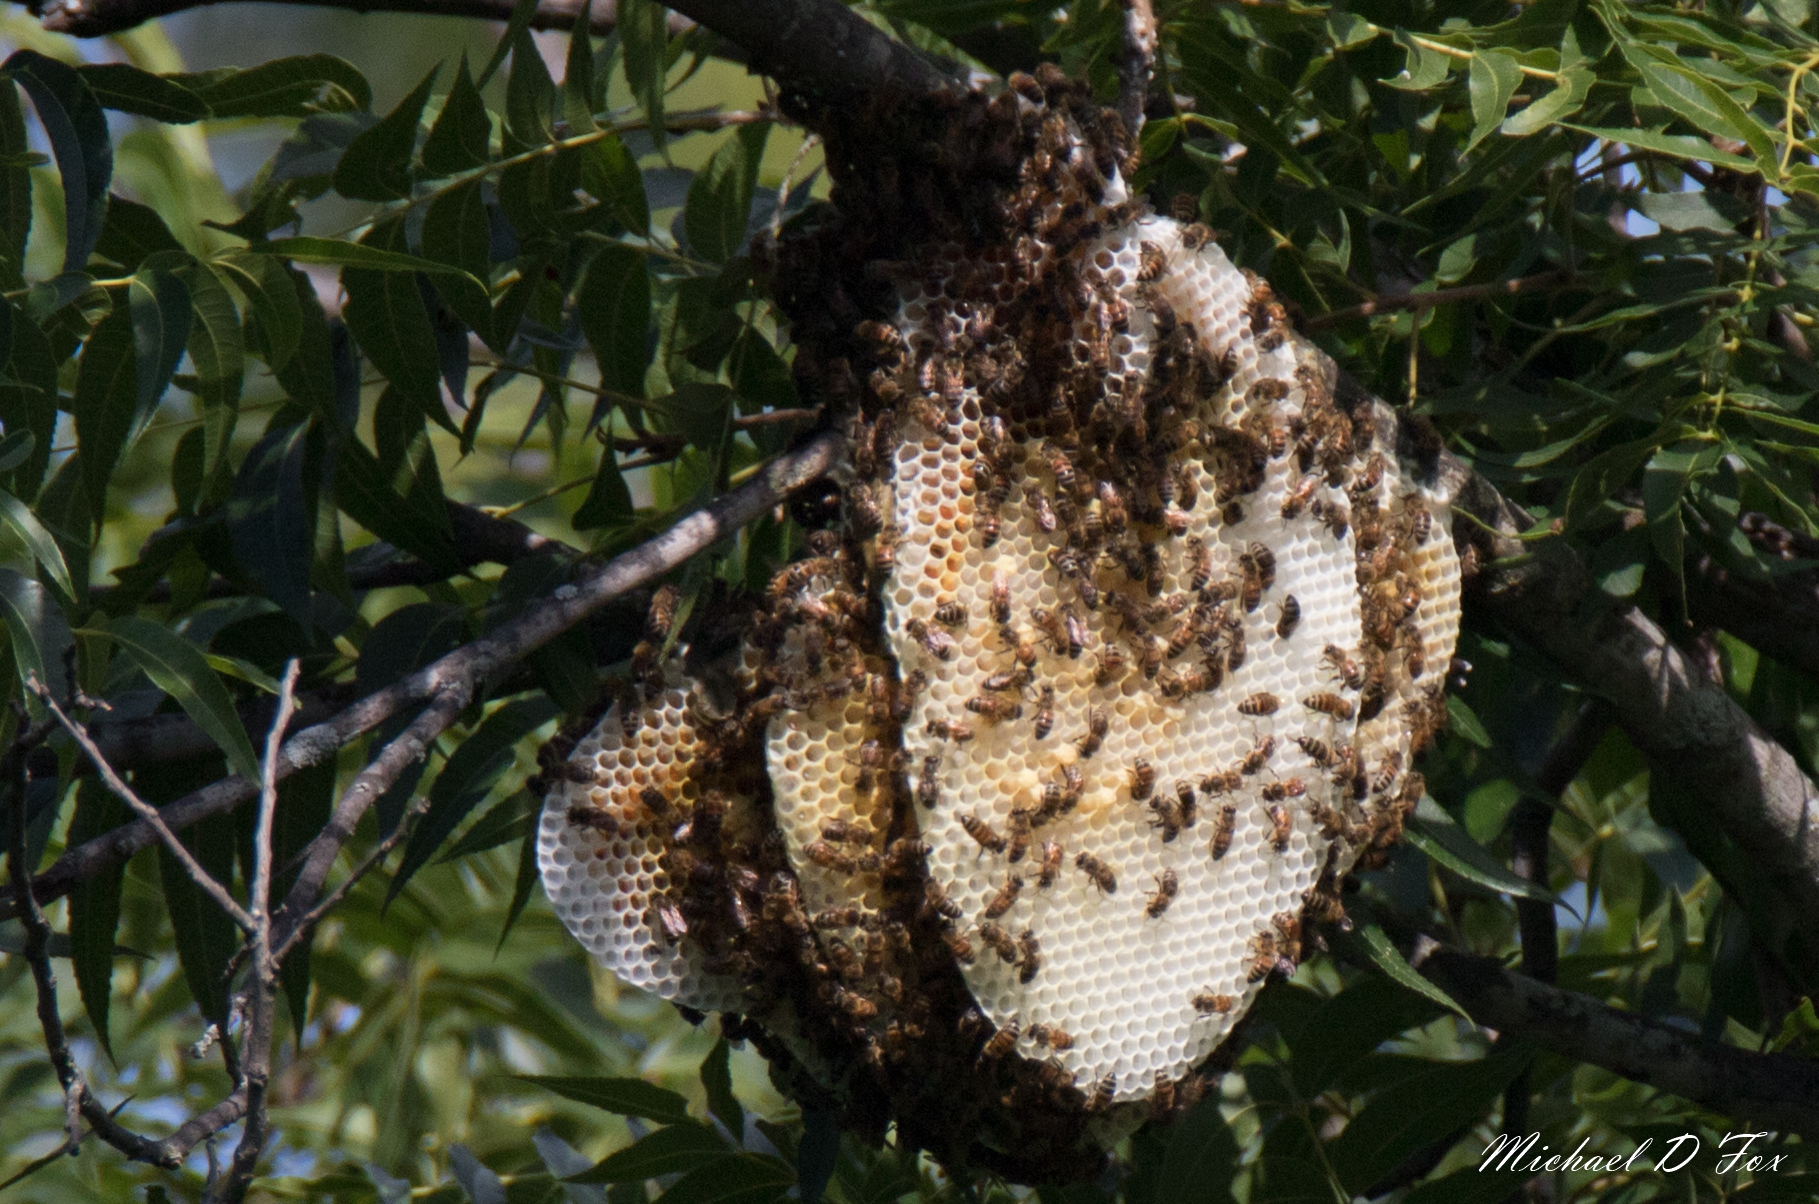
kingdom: Animalia
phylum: Arthropoda
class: Insecta
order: Hymenoptera
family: Apidae
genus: Apis
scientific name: Apis mellifera
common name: Honey bee
